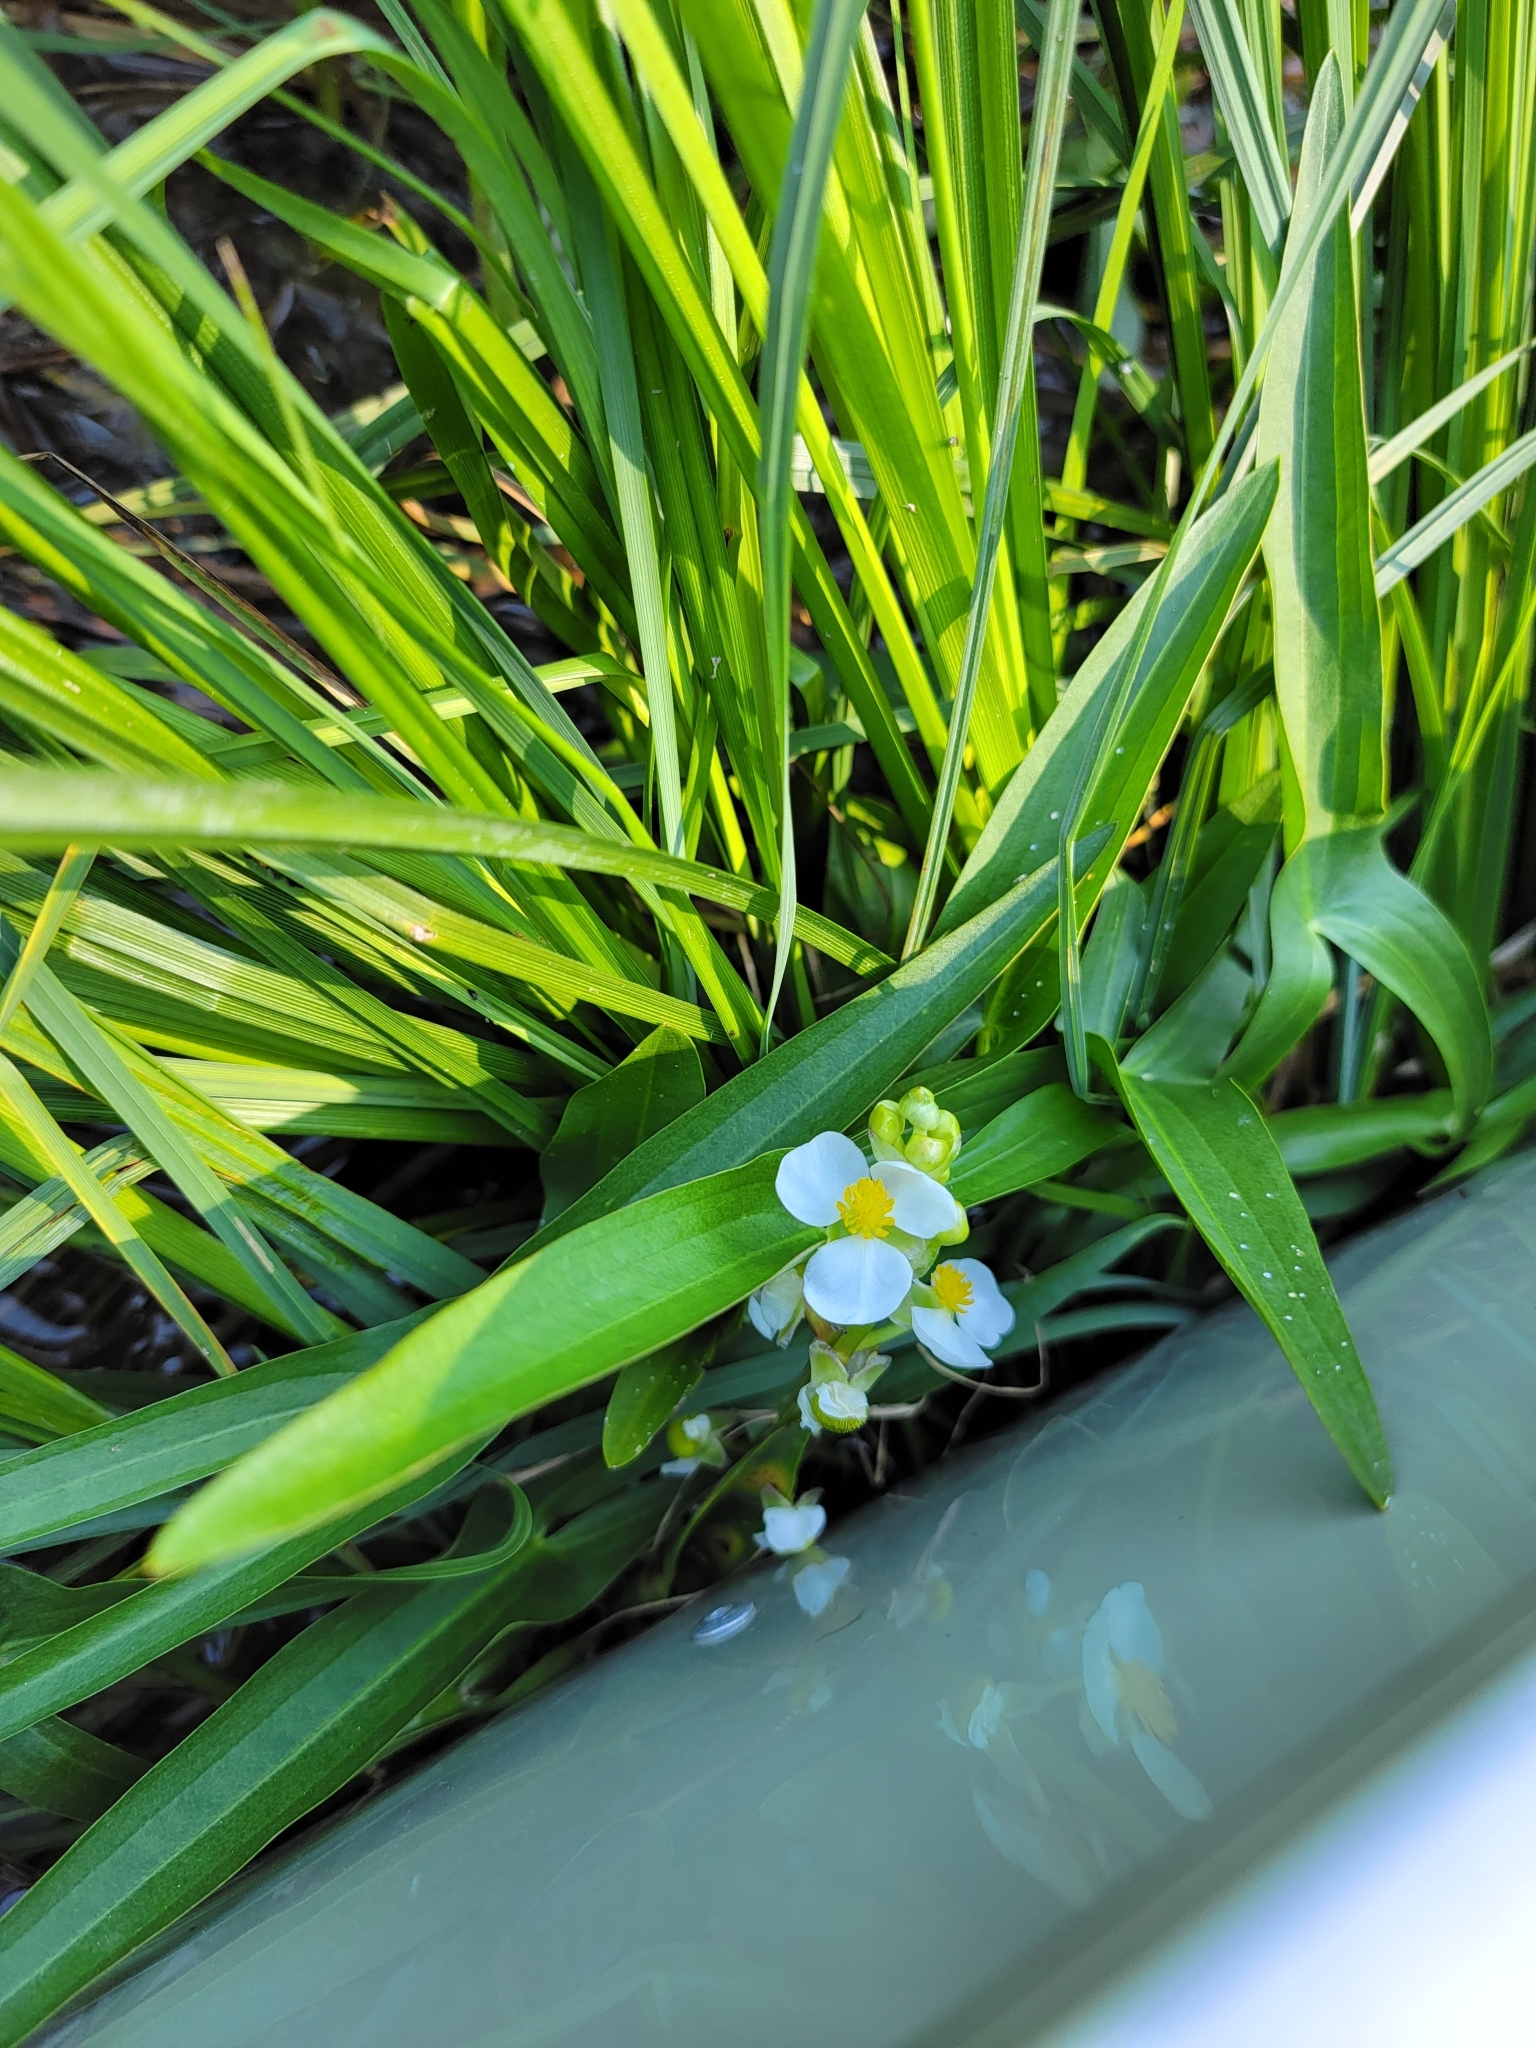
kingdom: Plantae
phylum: Tracheophyta
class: Liliopsida
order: Alismatales
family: Alismataceae
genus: Sagittaria
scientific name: Sagittaria
